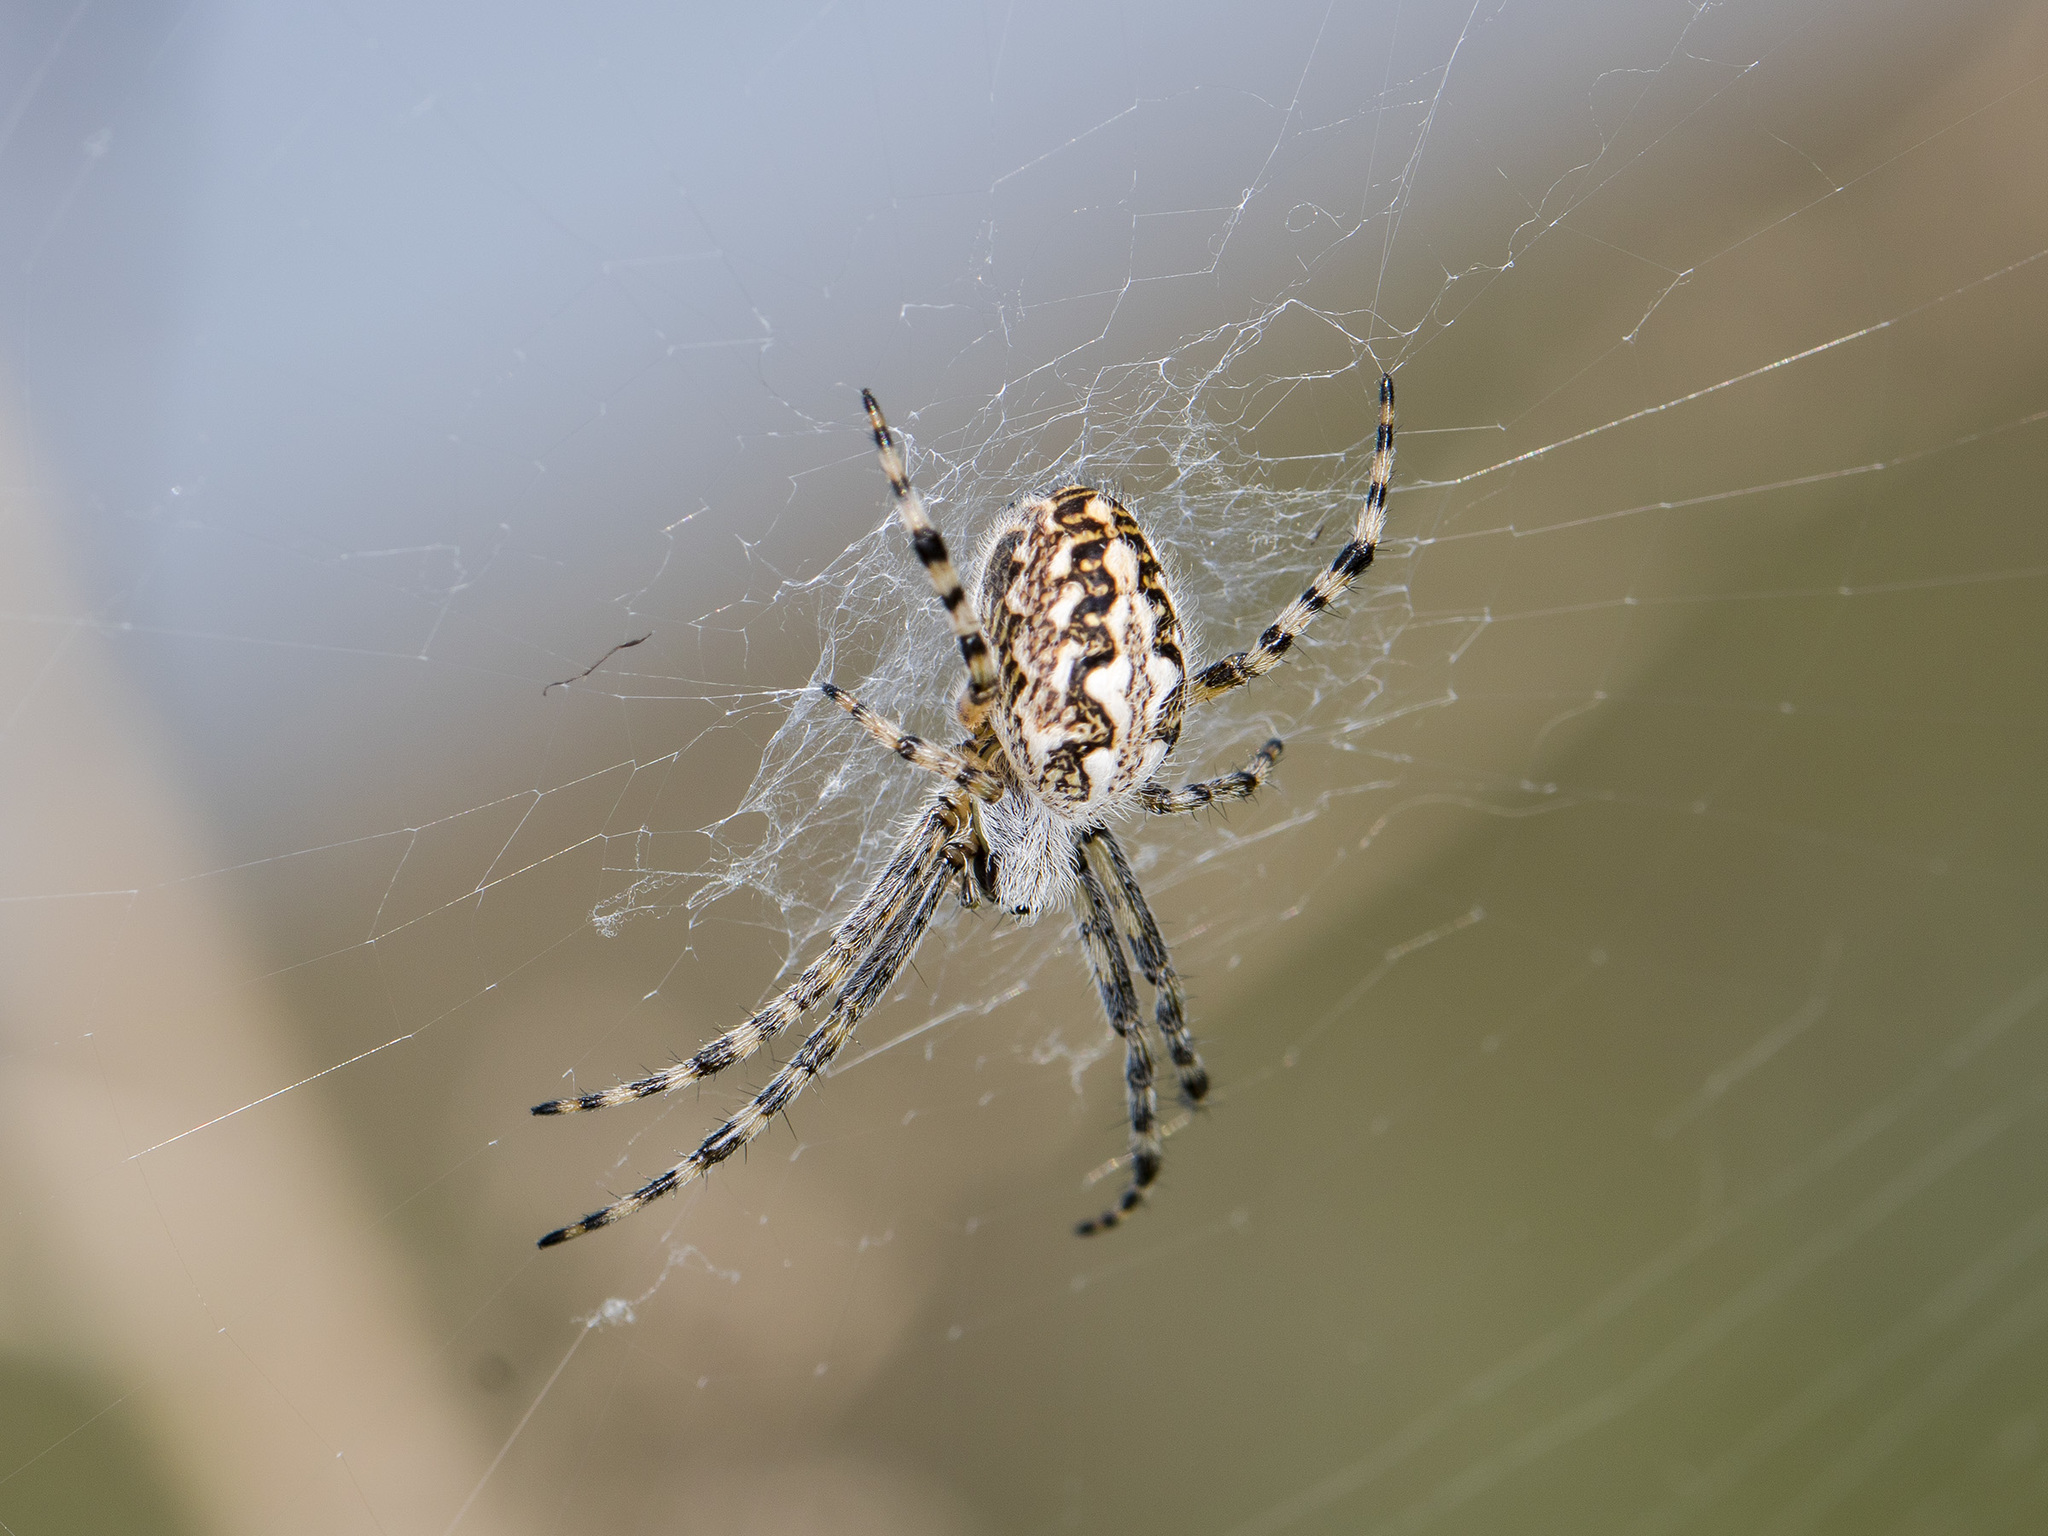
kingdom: Animalia
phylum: Arthropoda
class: Arachnida
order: Araneae
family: Araneidae
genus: Aculepeira
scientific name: Aculepeira armida
